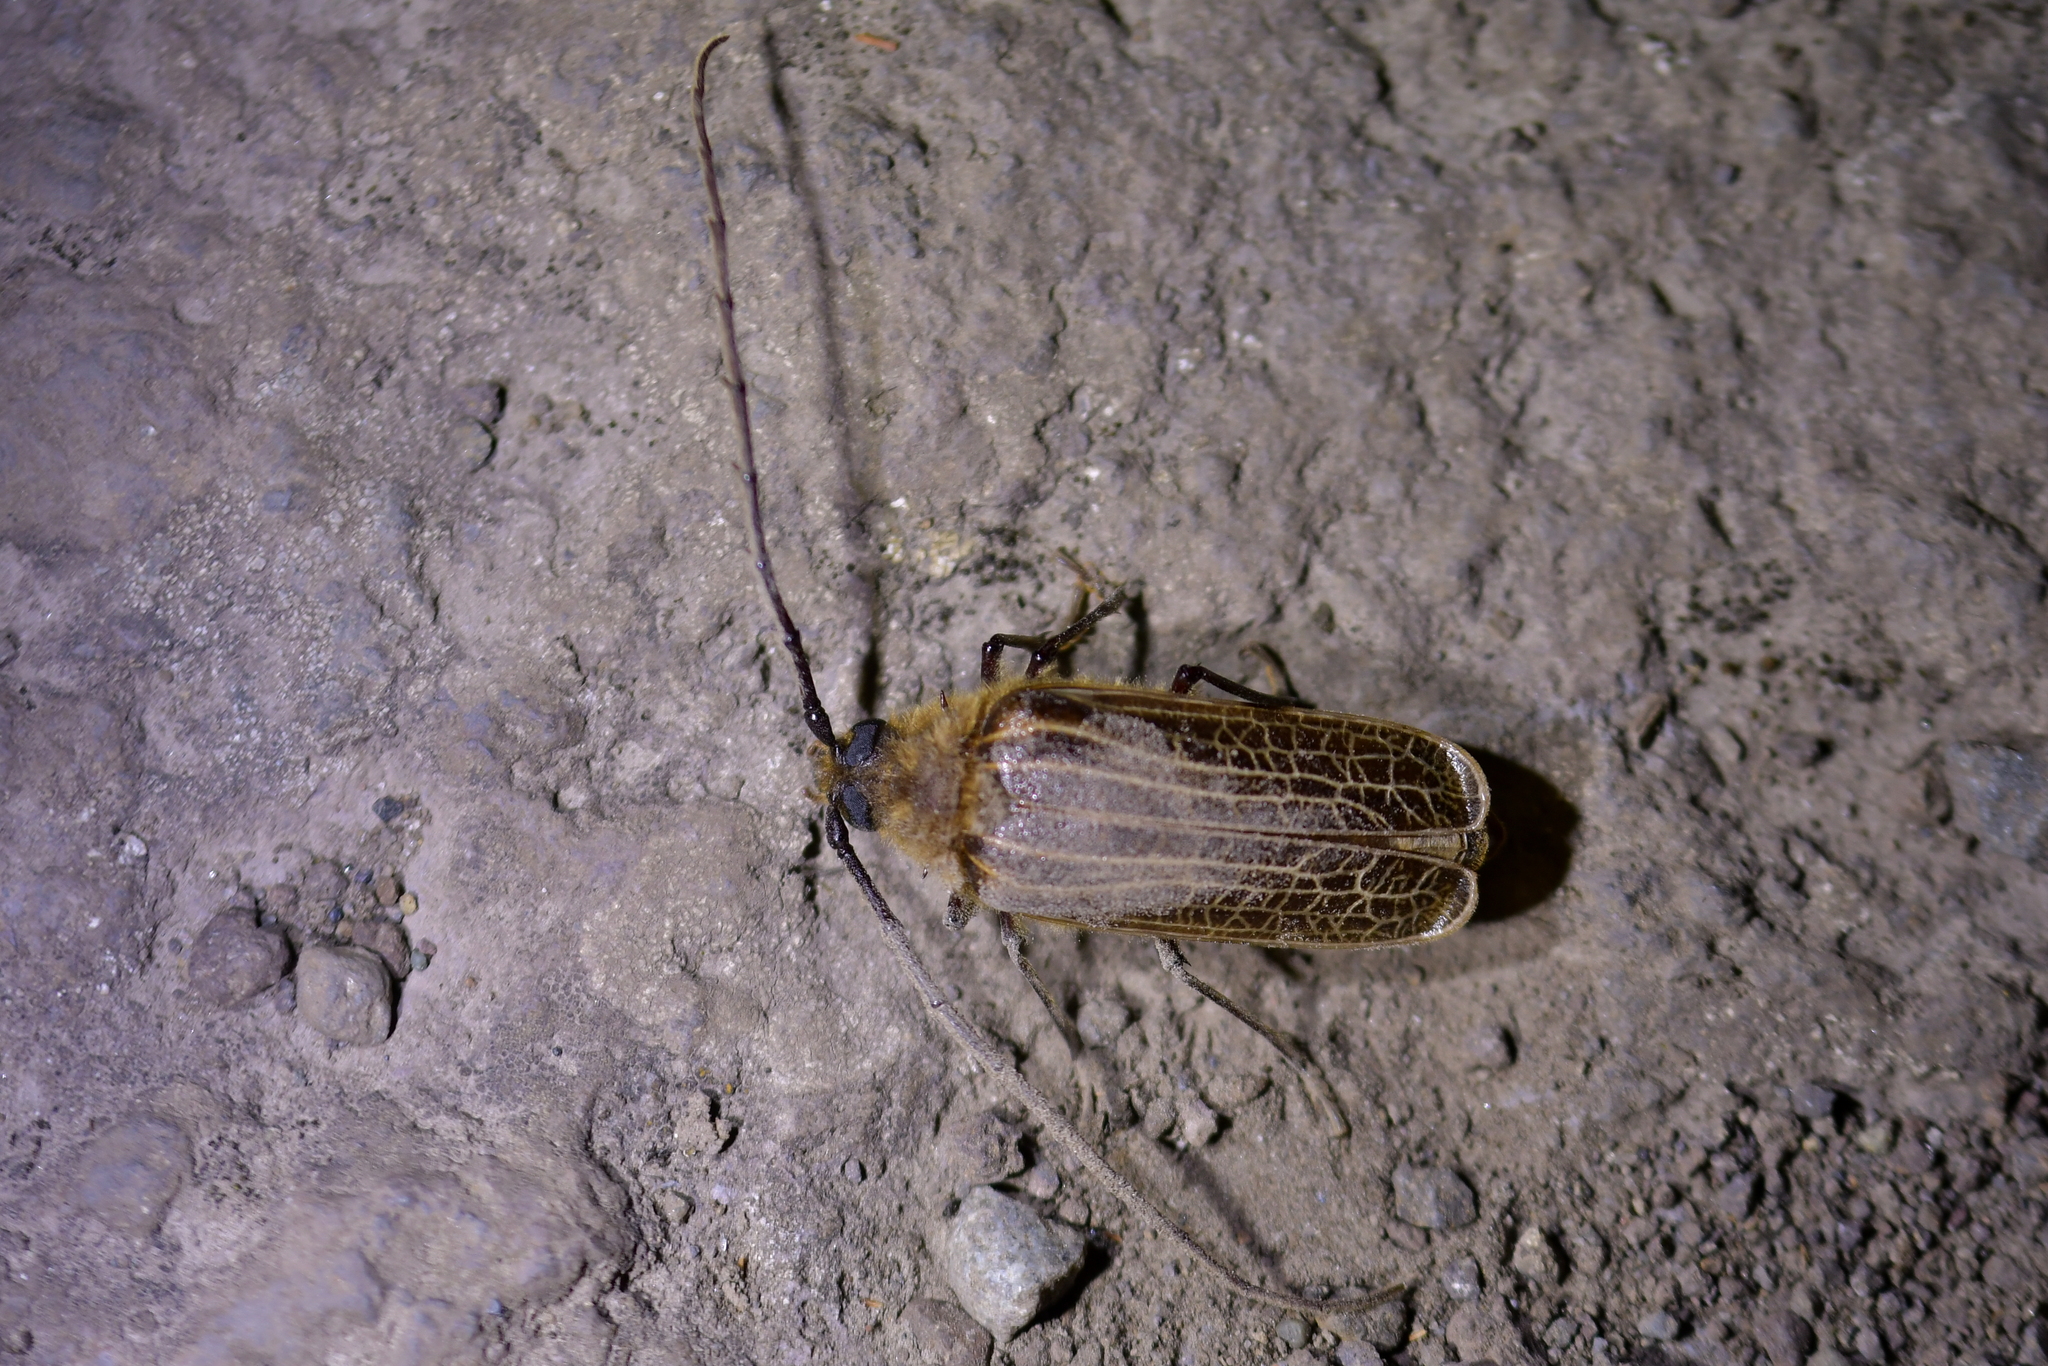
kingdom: Animalia
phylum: Arthropoda
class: Insecta
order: Coleoptera
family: Cerambycidae
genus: Prionoplus
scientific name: Prionoplus reticularis
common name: Huhu beetle
